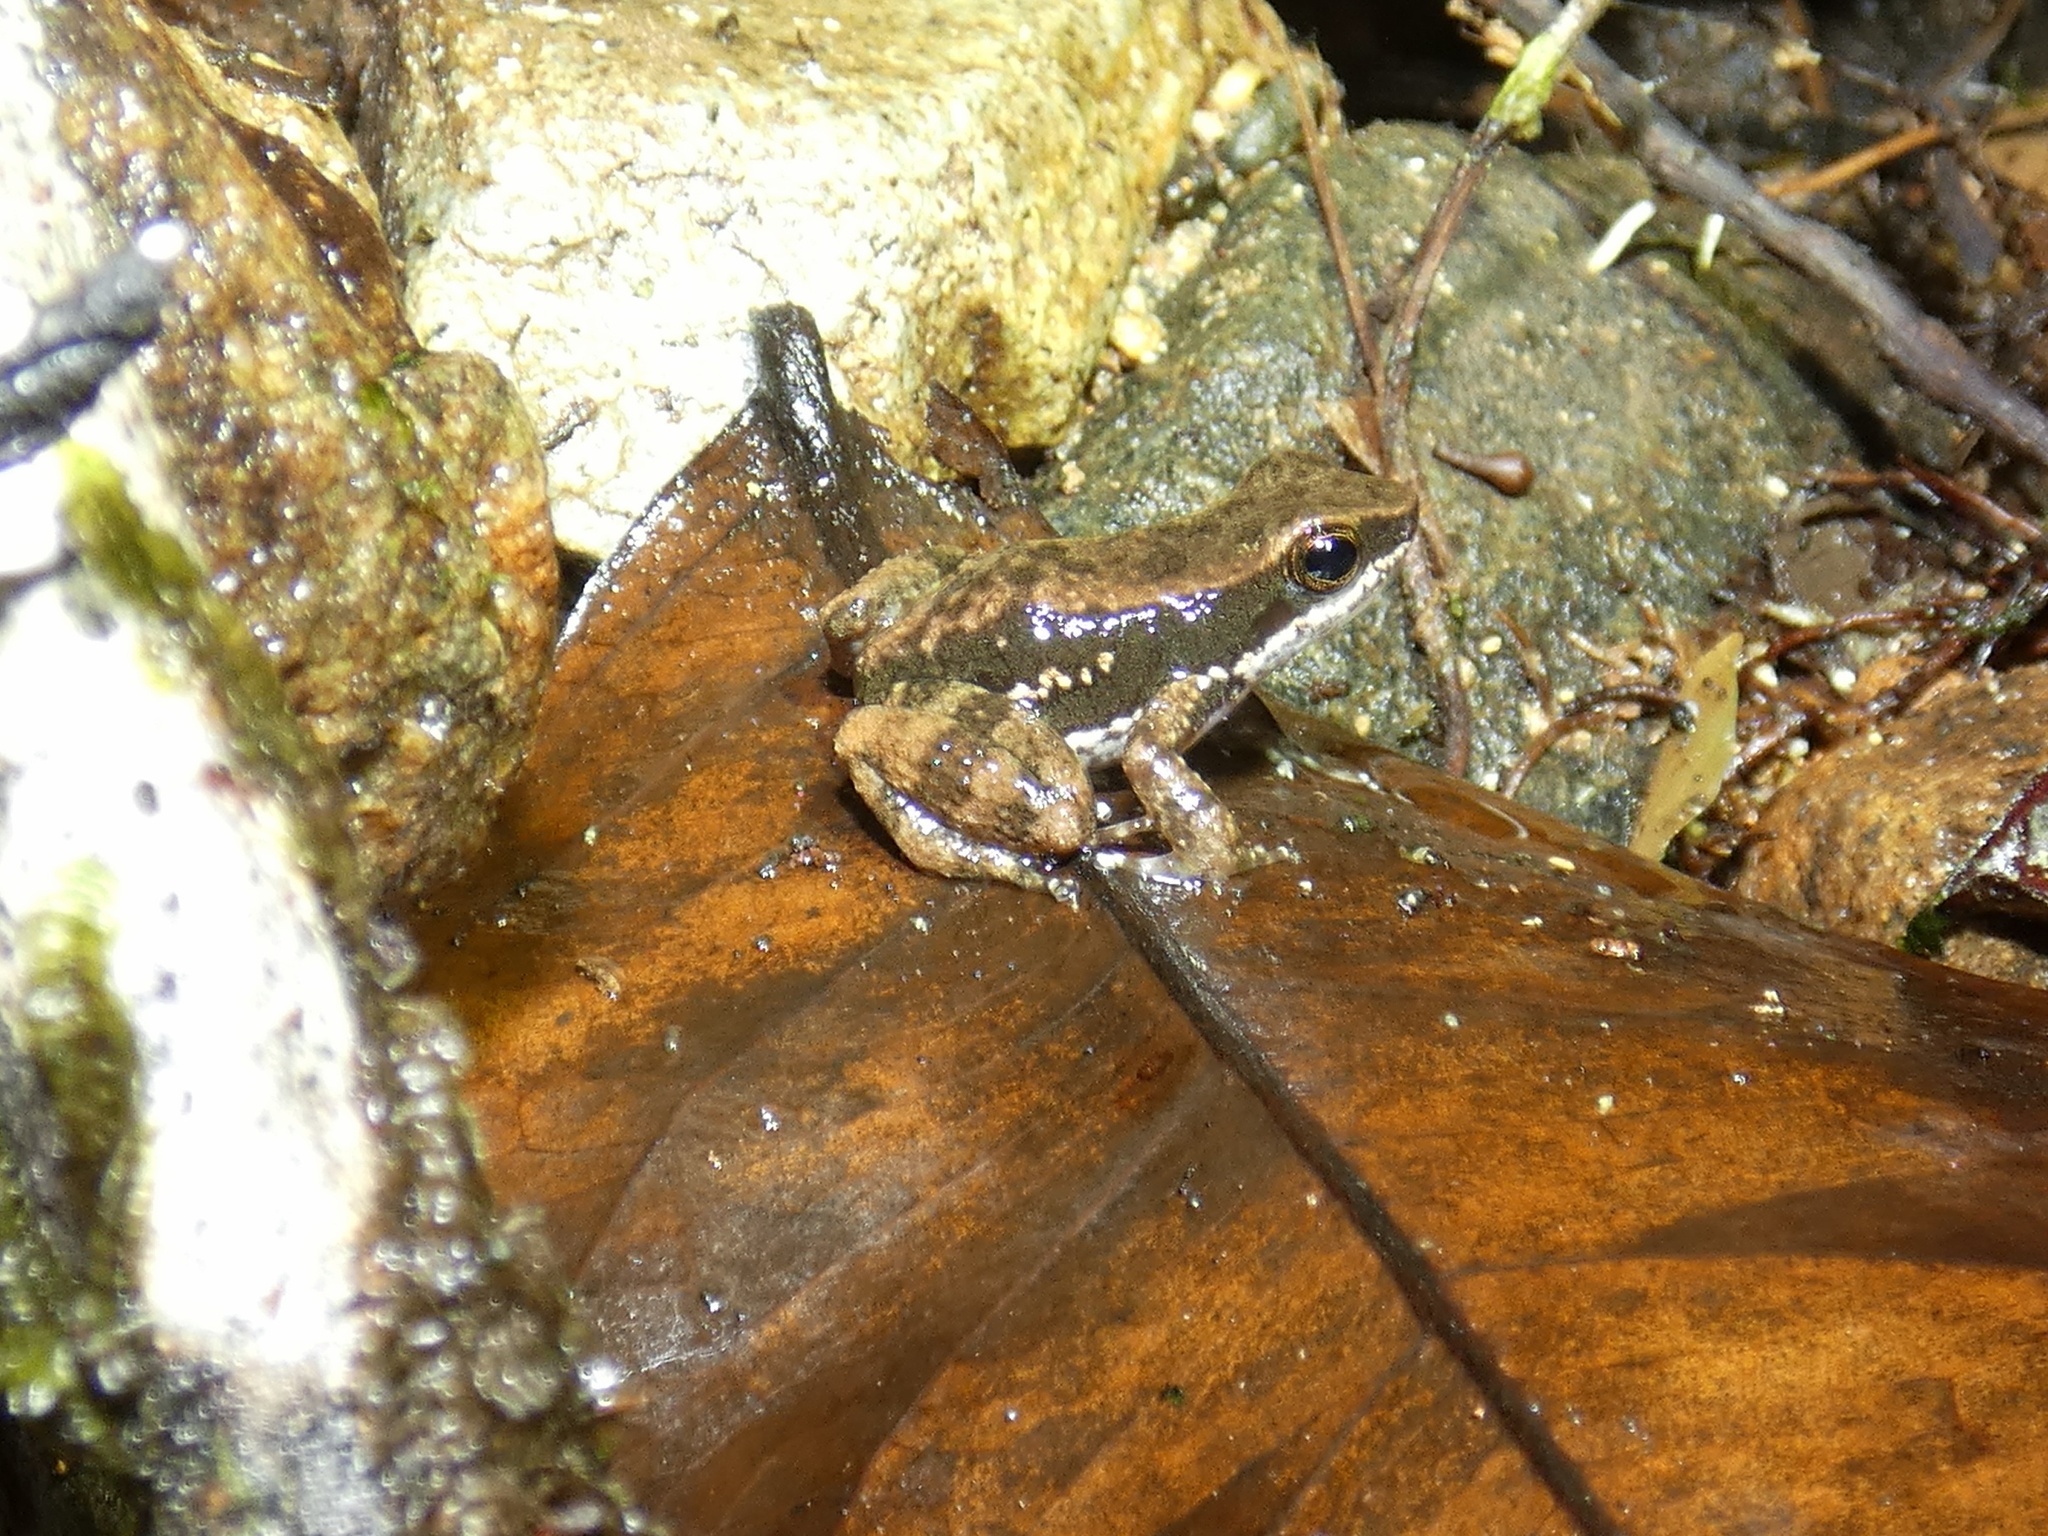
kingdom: Animalia
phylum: Chordata
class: Amphibia
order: Anura
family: Dendrobatidae
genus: Colostethus
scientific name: Colostethus panamansis
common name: Panama rocket frog
